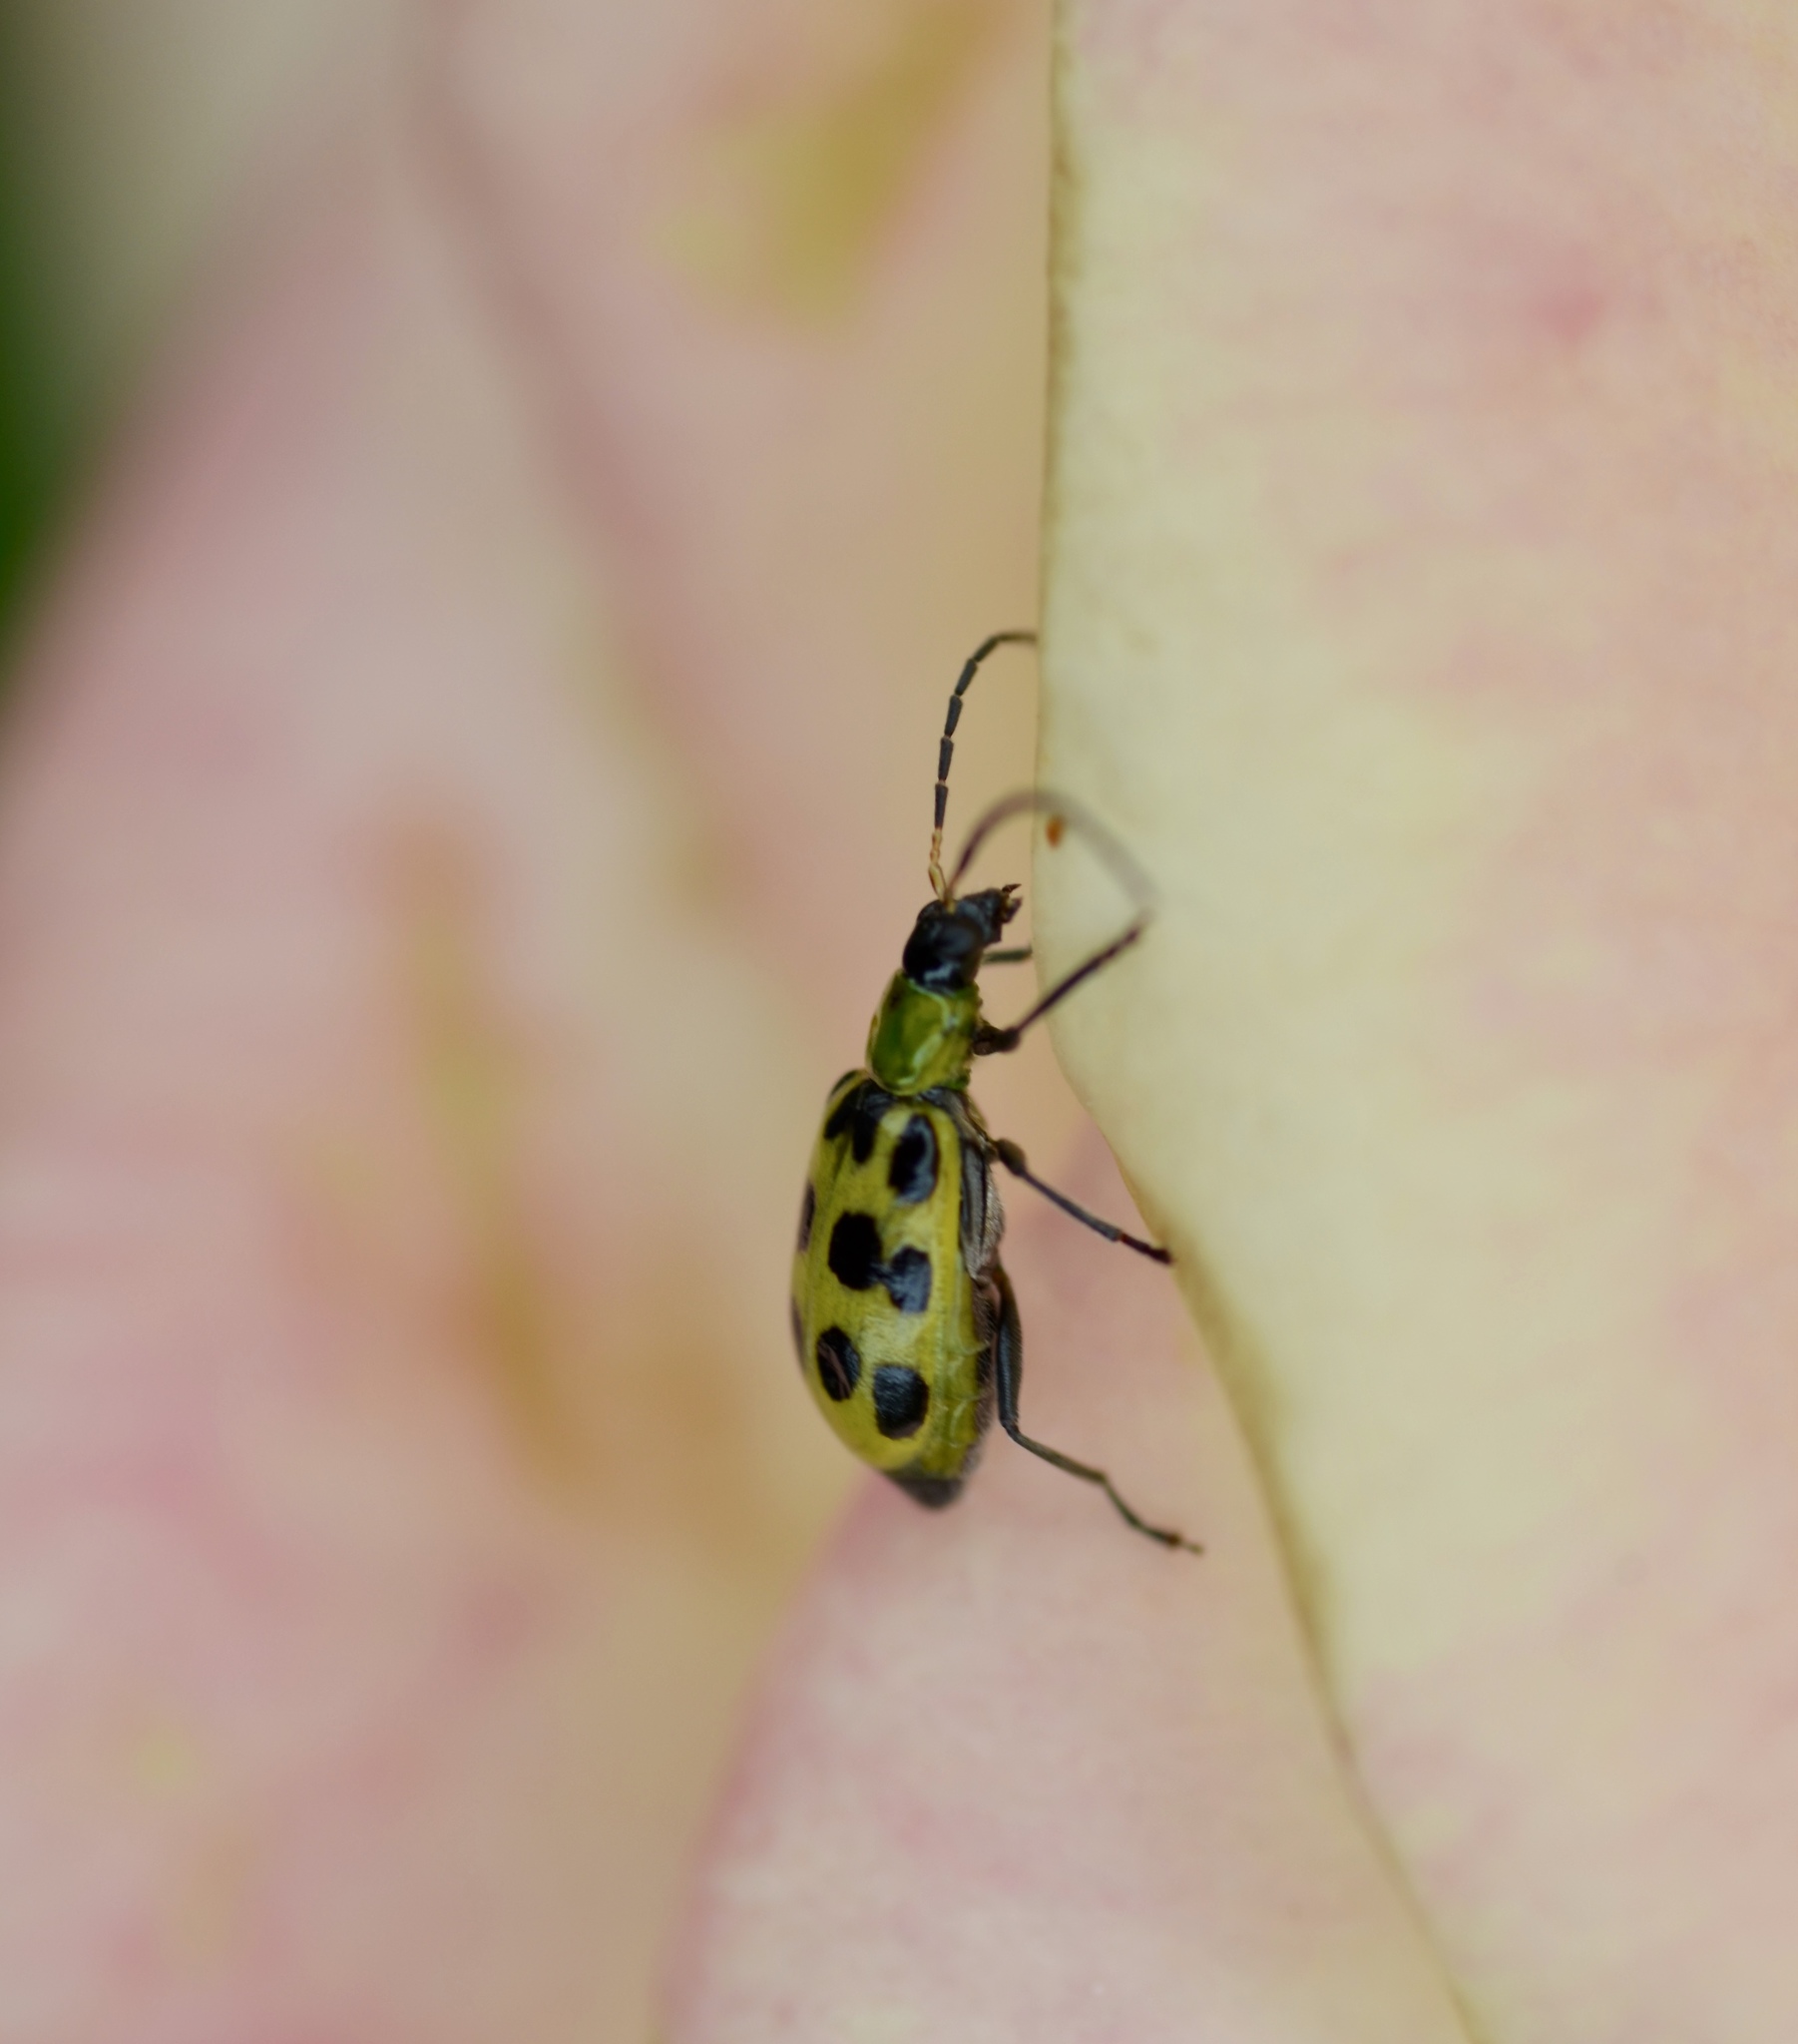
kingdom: Animalia
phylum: Arthropoda
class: Insecta
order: Coleoptera
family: Chrysomelidae
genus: Diabrotica
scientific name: Diabrotica undecimpunctata
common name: Spotted cucumber beetle
